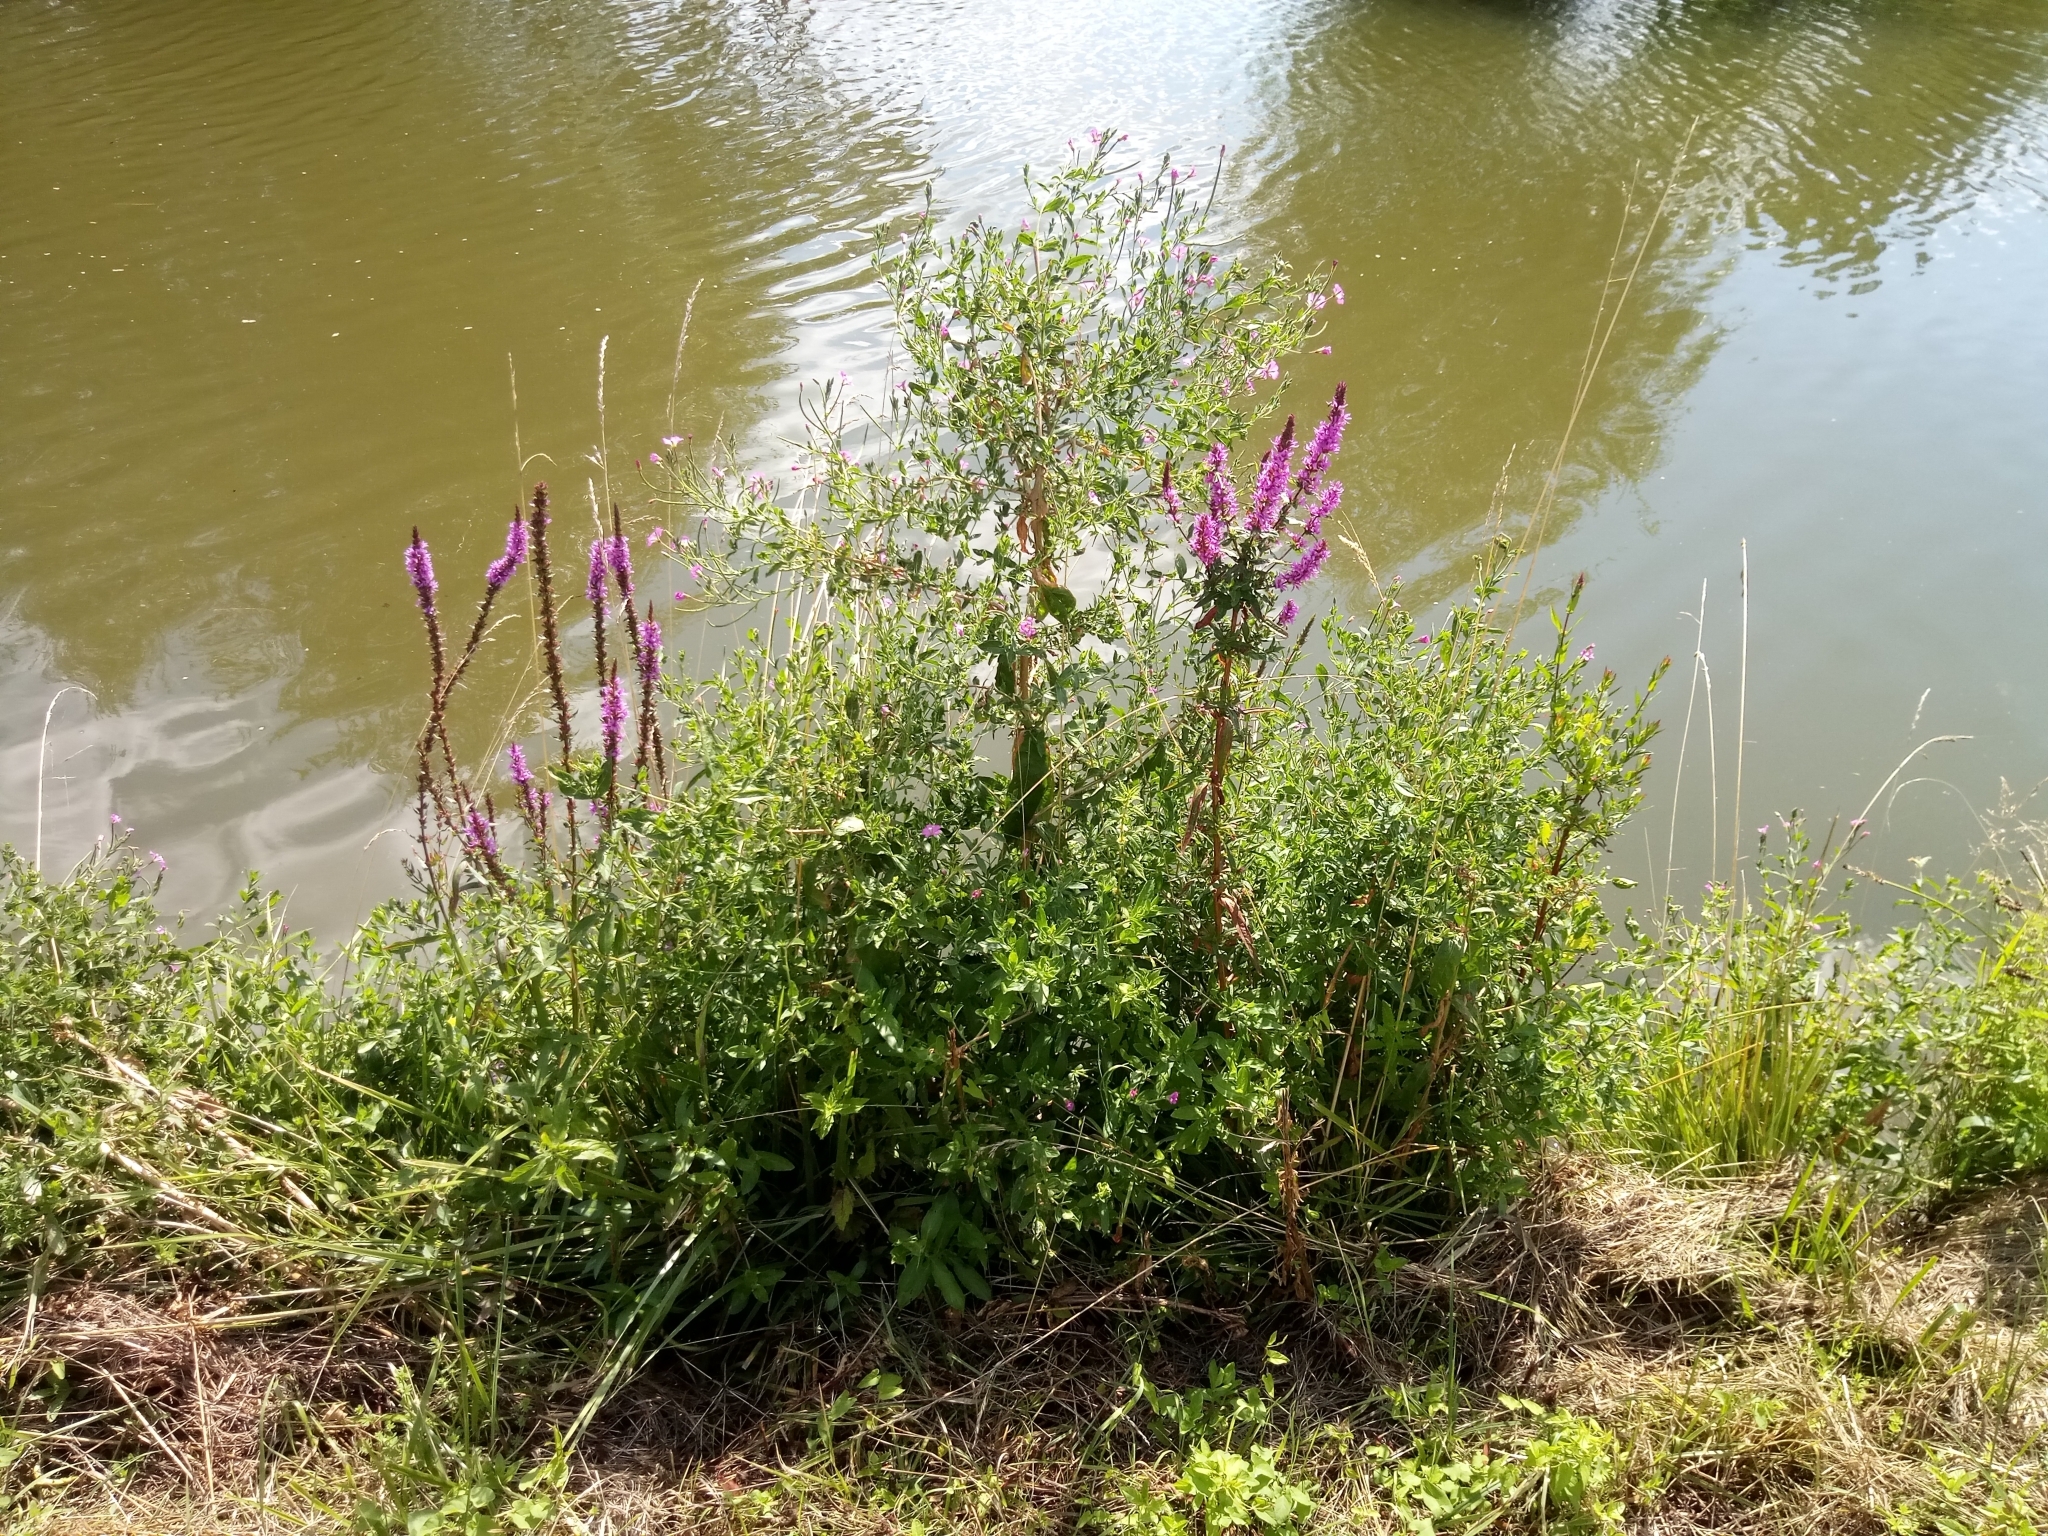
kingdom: Plantae
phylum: Tracheophyta
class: Magnoliopsida
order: Myrtales
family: Lythraceae
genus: Lythrum
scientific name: Lythrum salicaria
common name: Purple loosestrife
